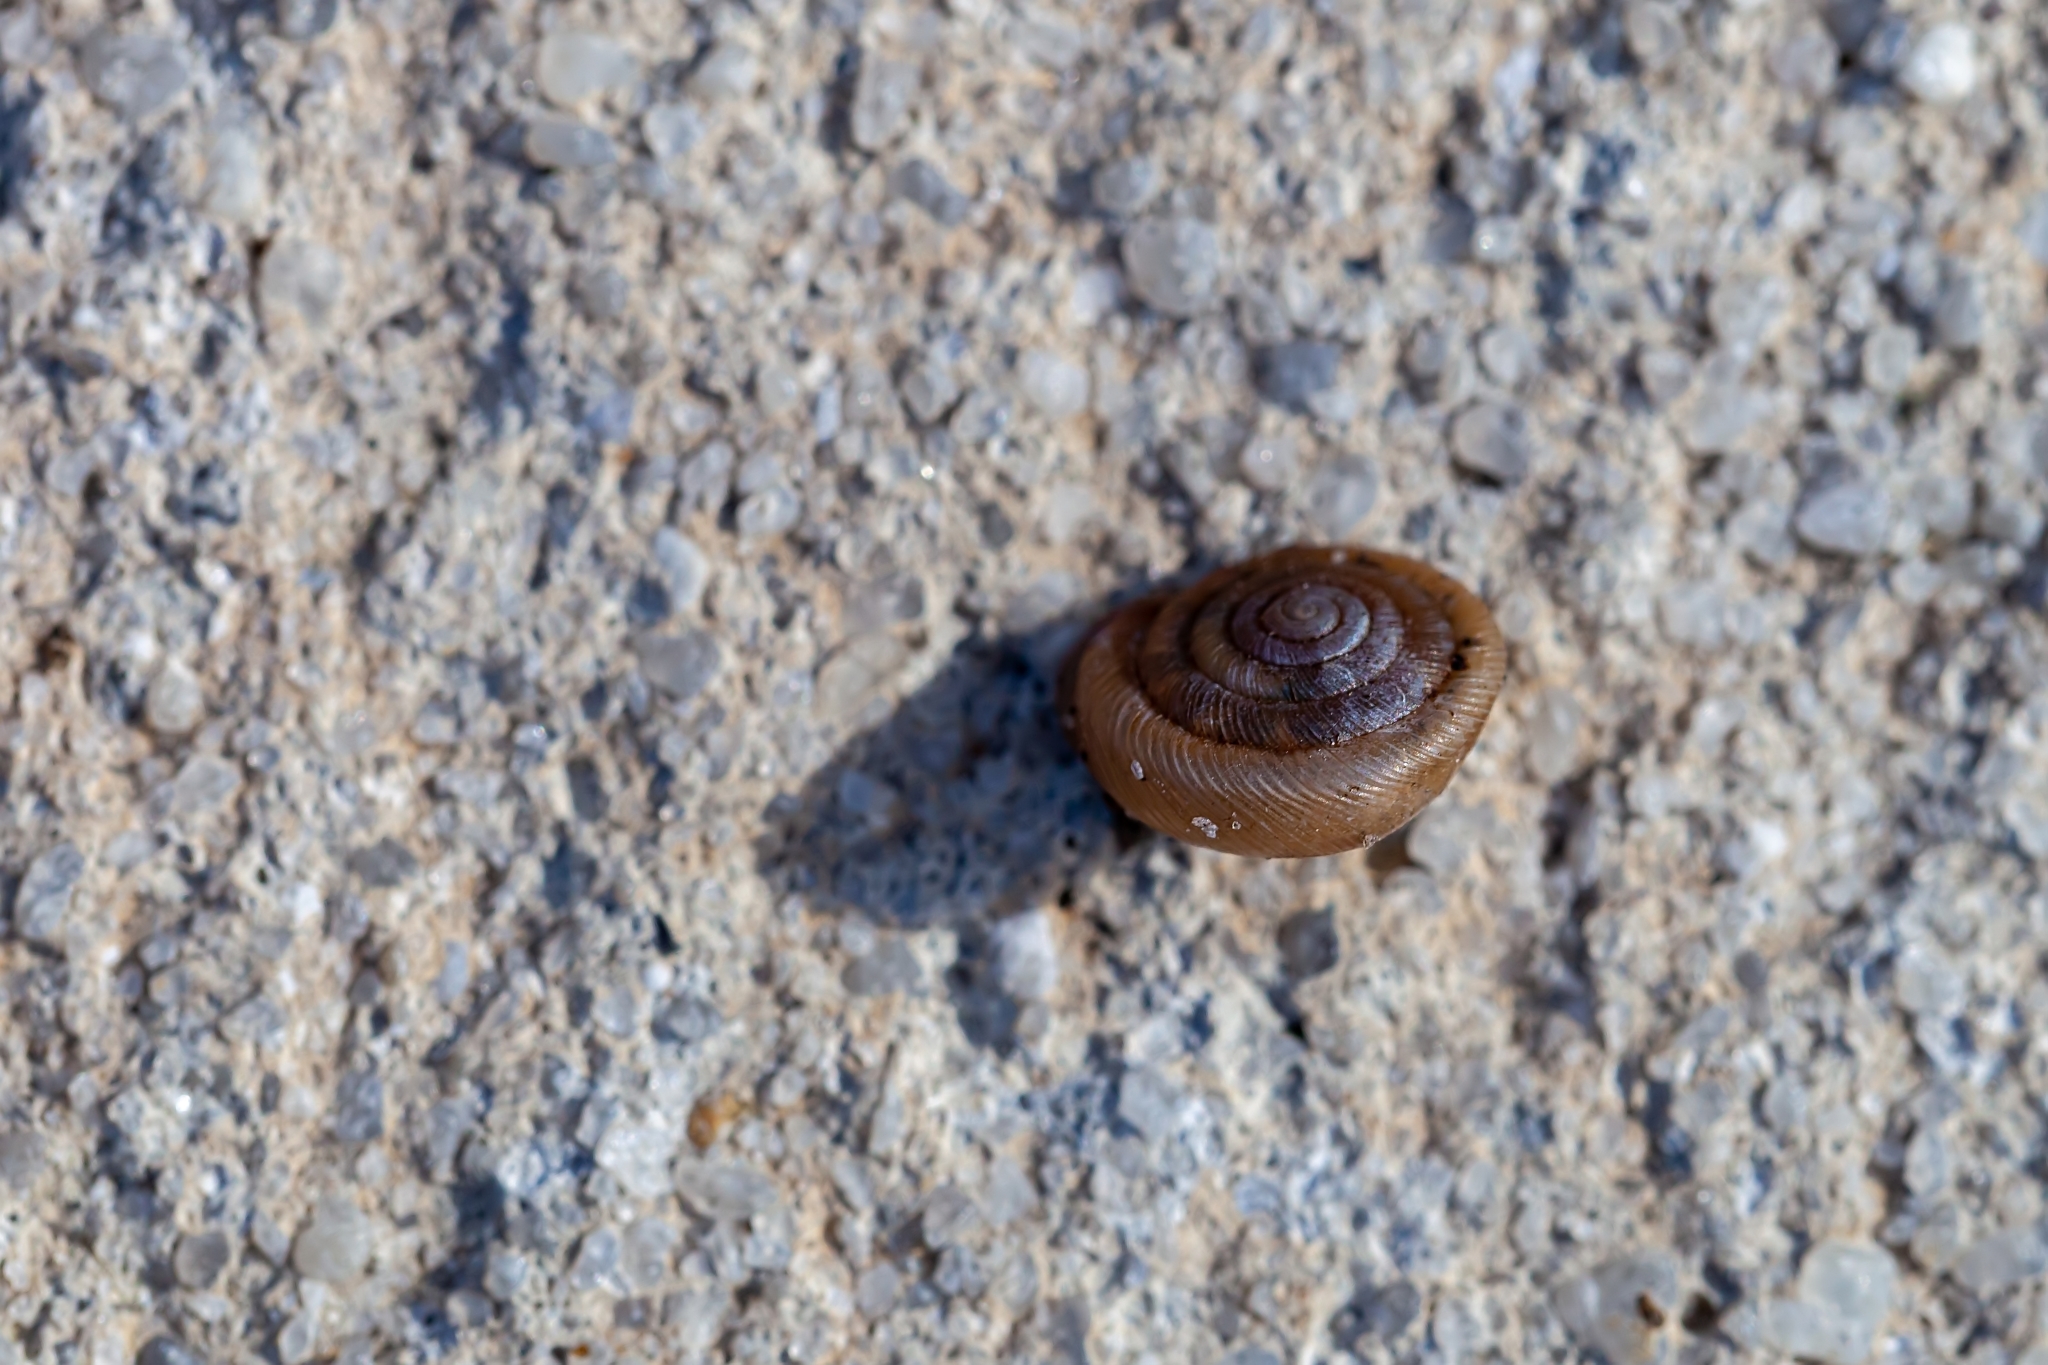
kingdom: Animalia
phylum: Mollusca
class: Gastropoda
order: Stylommatophora
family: Polygyridae
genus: Polygyra
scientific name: Polygyra cereolus
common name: Southern flatcone snail
